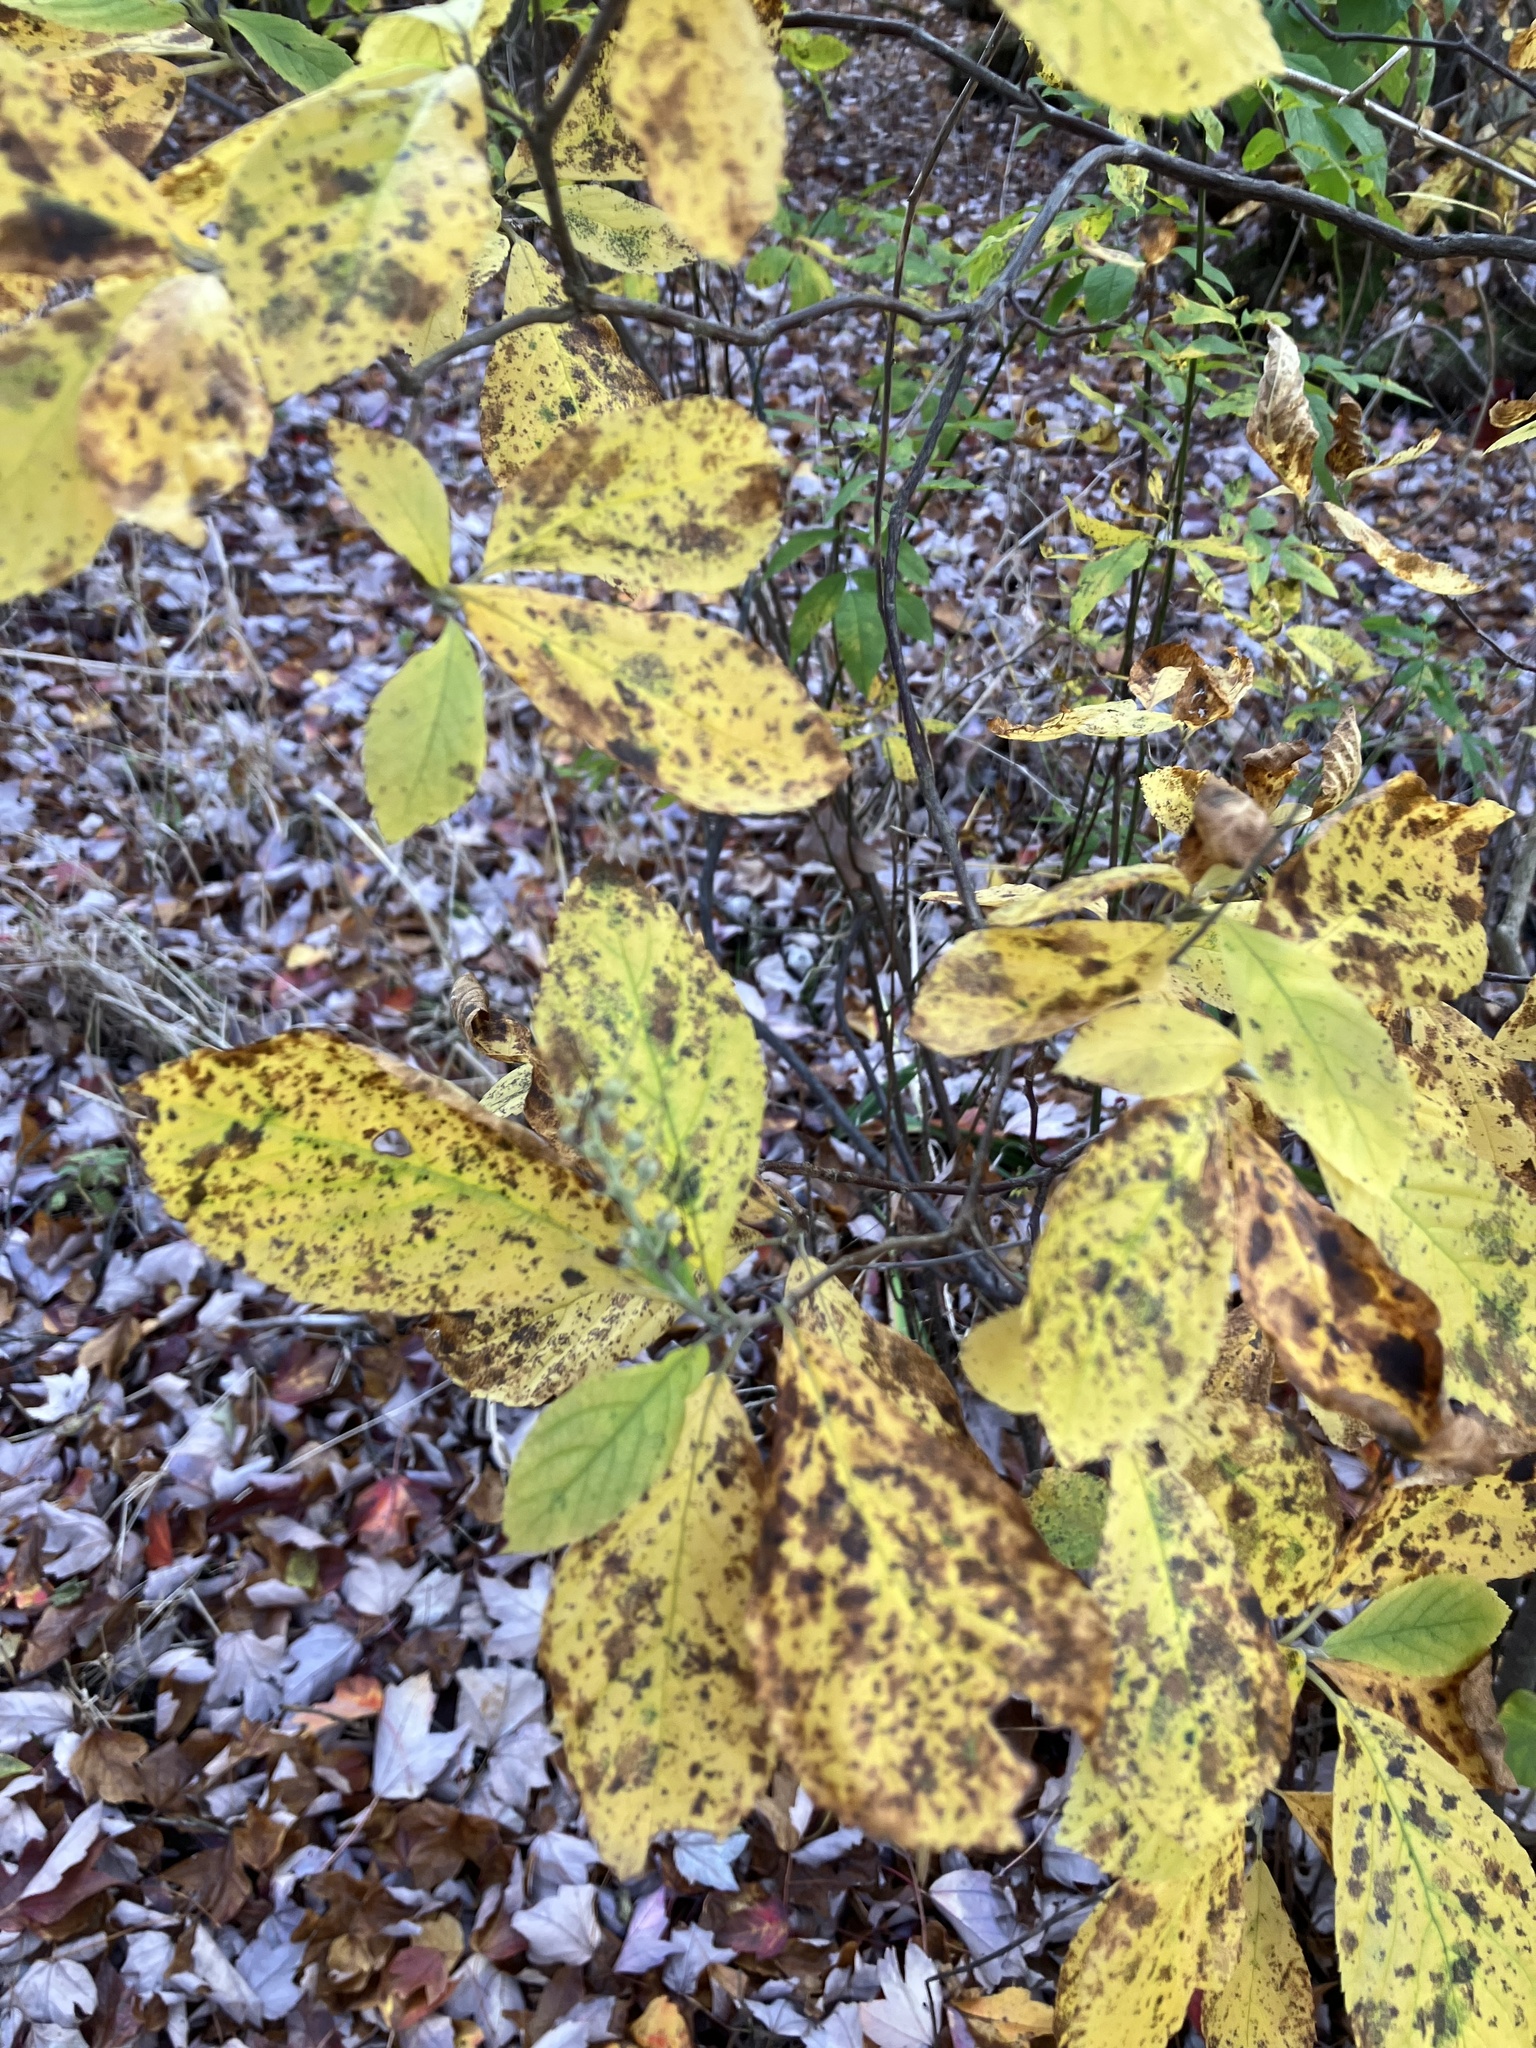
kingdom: Plantae
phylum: Tracheophyta
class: Magnoliopsida
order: Ericales
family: Clethraceae
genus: Clethra
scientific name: Clethra alnifolia
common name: Sweet pepperbush
